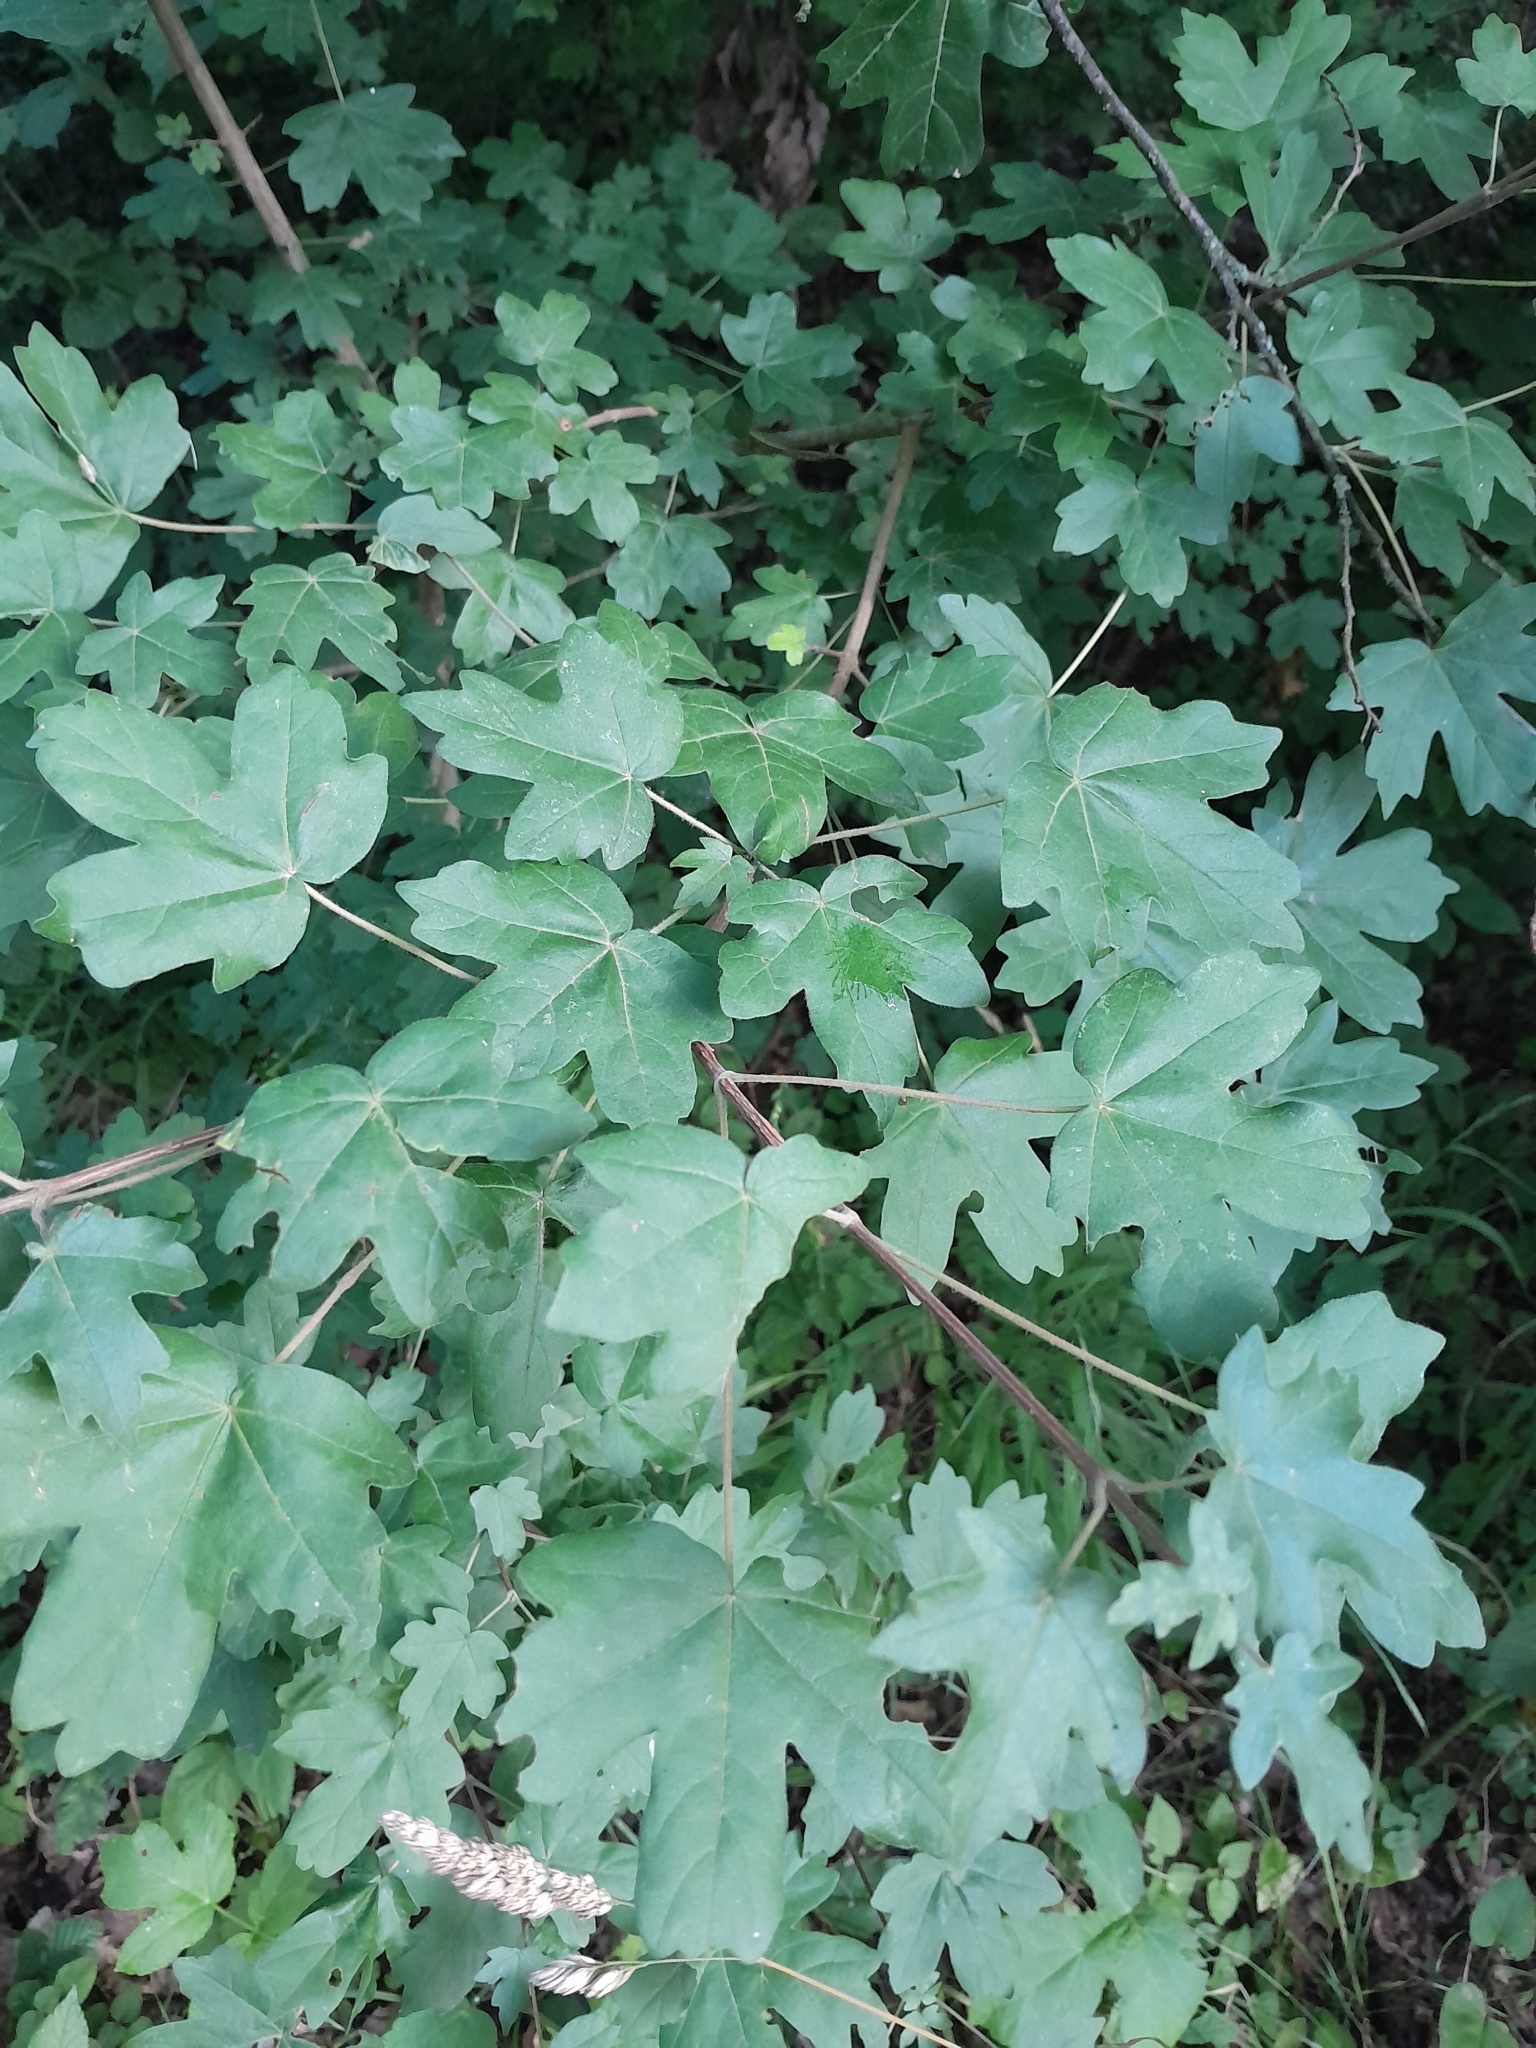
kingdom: Plantae
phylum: Tracheophyta
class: Magnoliopsida
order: Sapindales
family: Sapindaceae
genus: Acer
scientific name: Acer campestre
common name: Field maple
